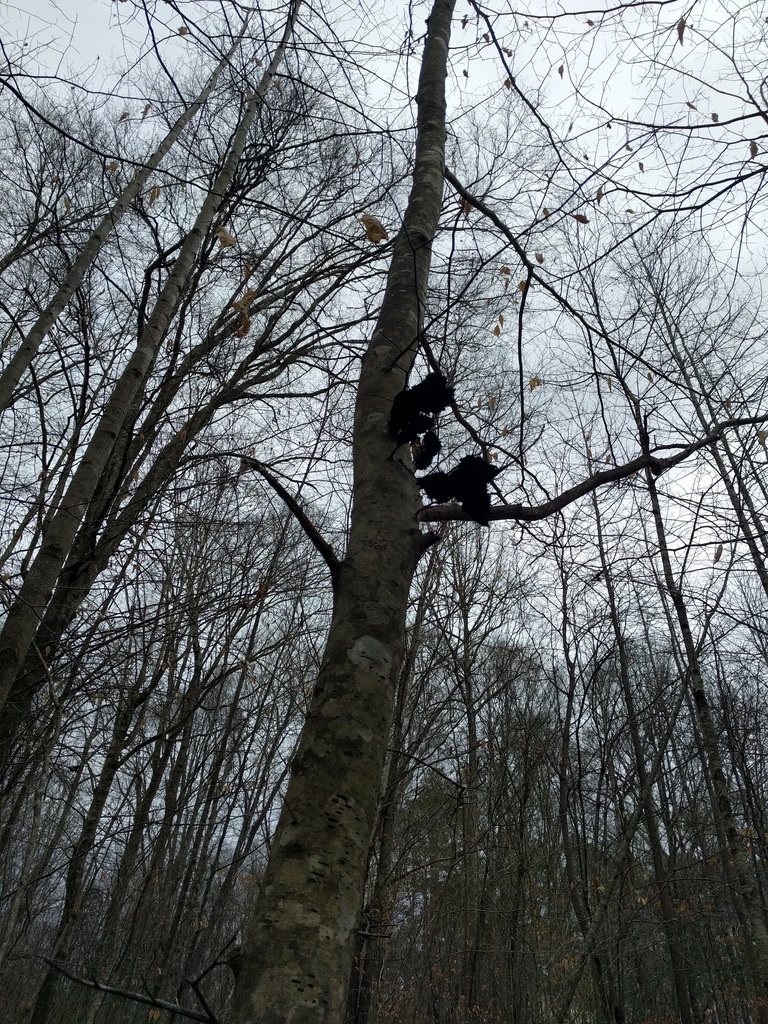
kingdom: Fungi
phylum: Ascomycota
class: Dothideomycetes
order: Capnodiales
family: Capnodiaceae
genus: Scorias
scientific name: Scorias spongiosa
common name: Black sooty mold
